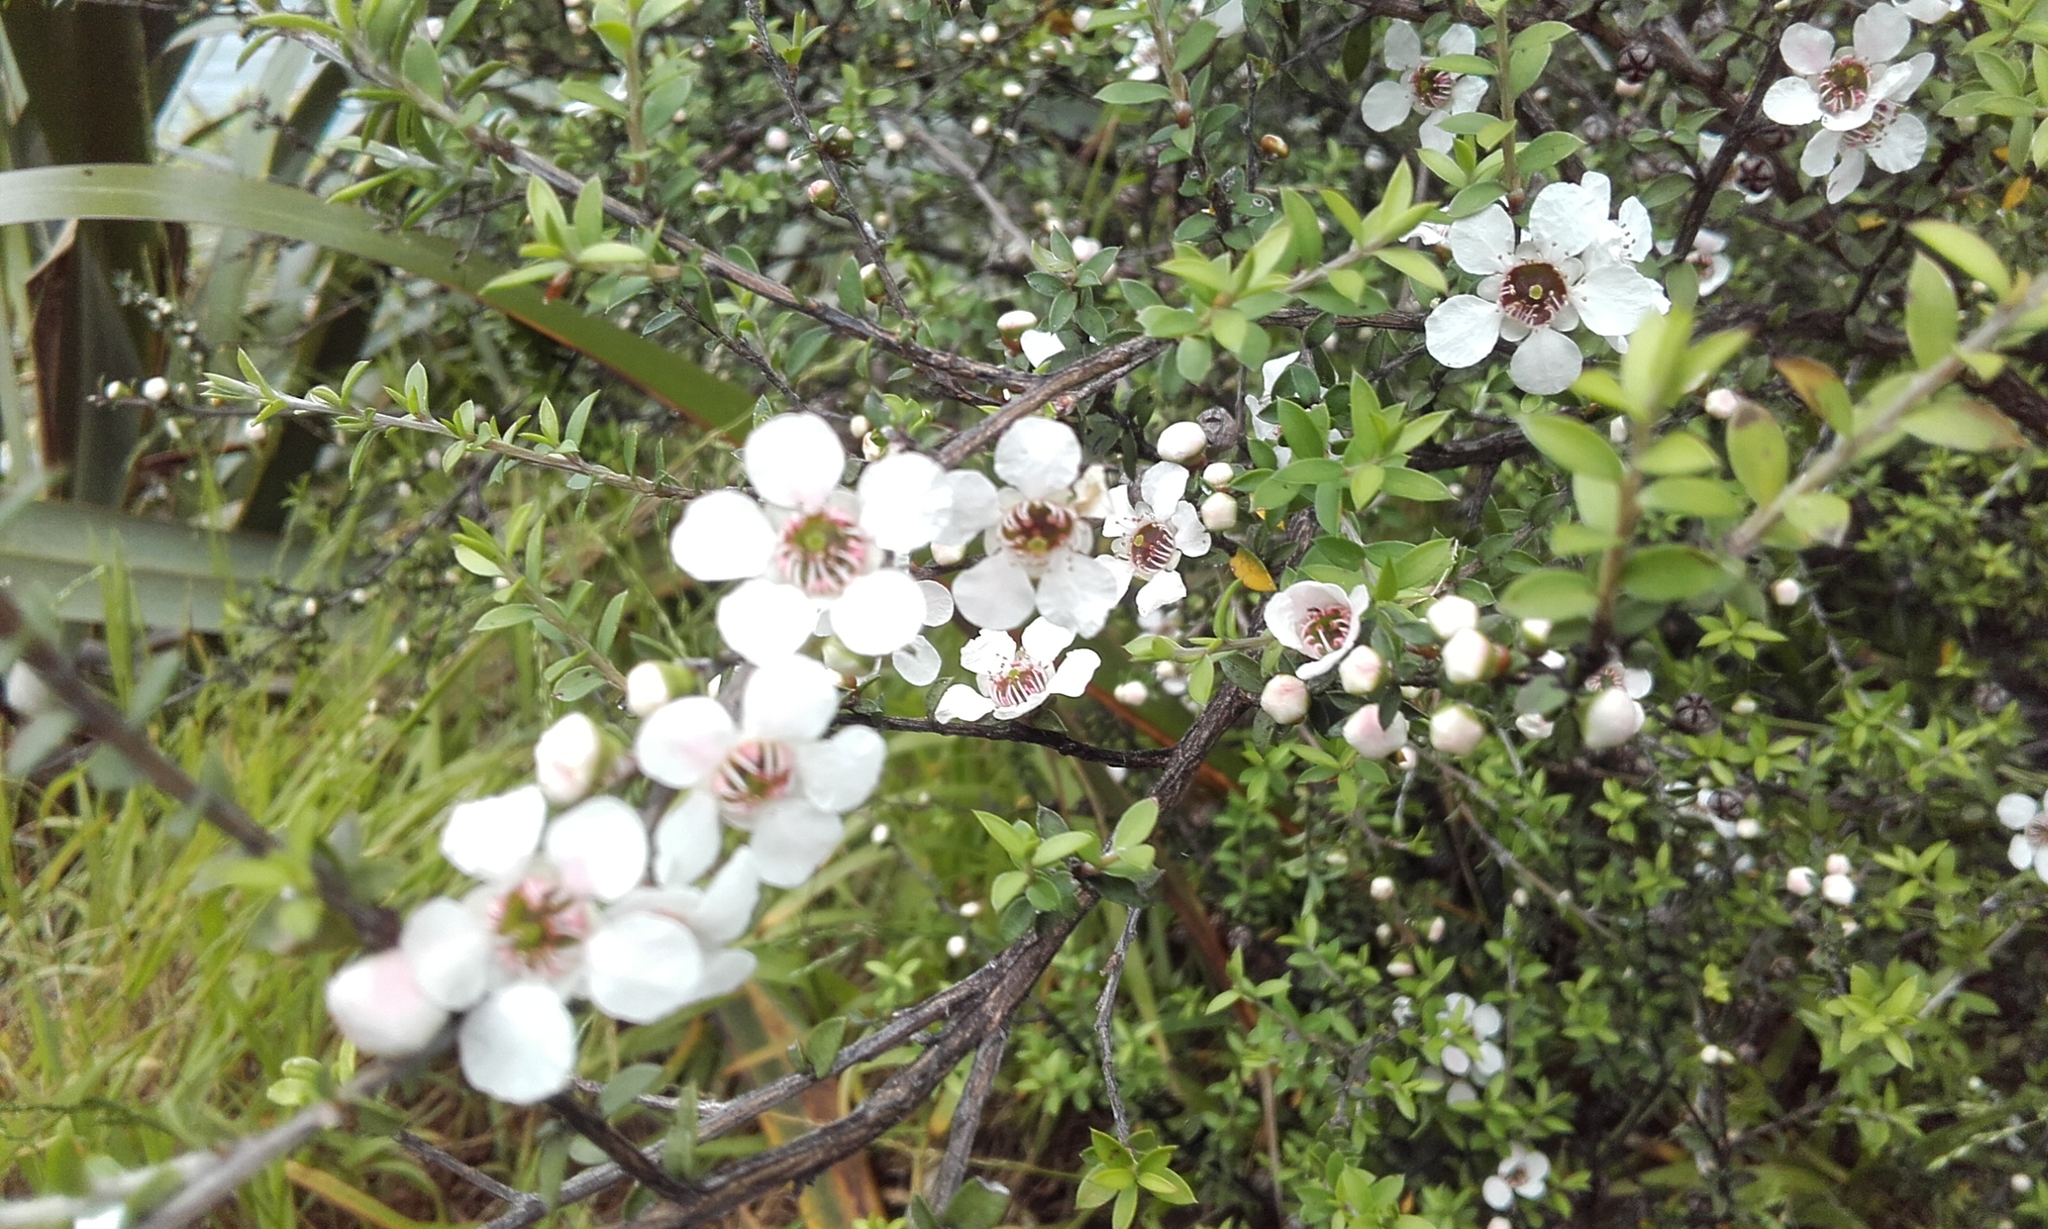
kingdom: Plantae
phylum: Tracheophyta
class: Magnoliopsida
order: Myrtales
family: Myrtaceae
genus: Leptospermum
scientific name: Leptospermum scoparium
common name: Broom tea-tree
